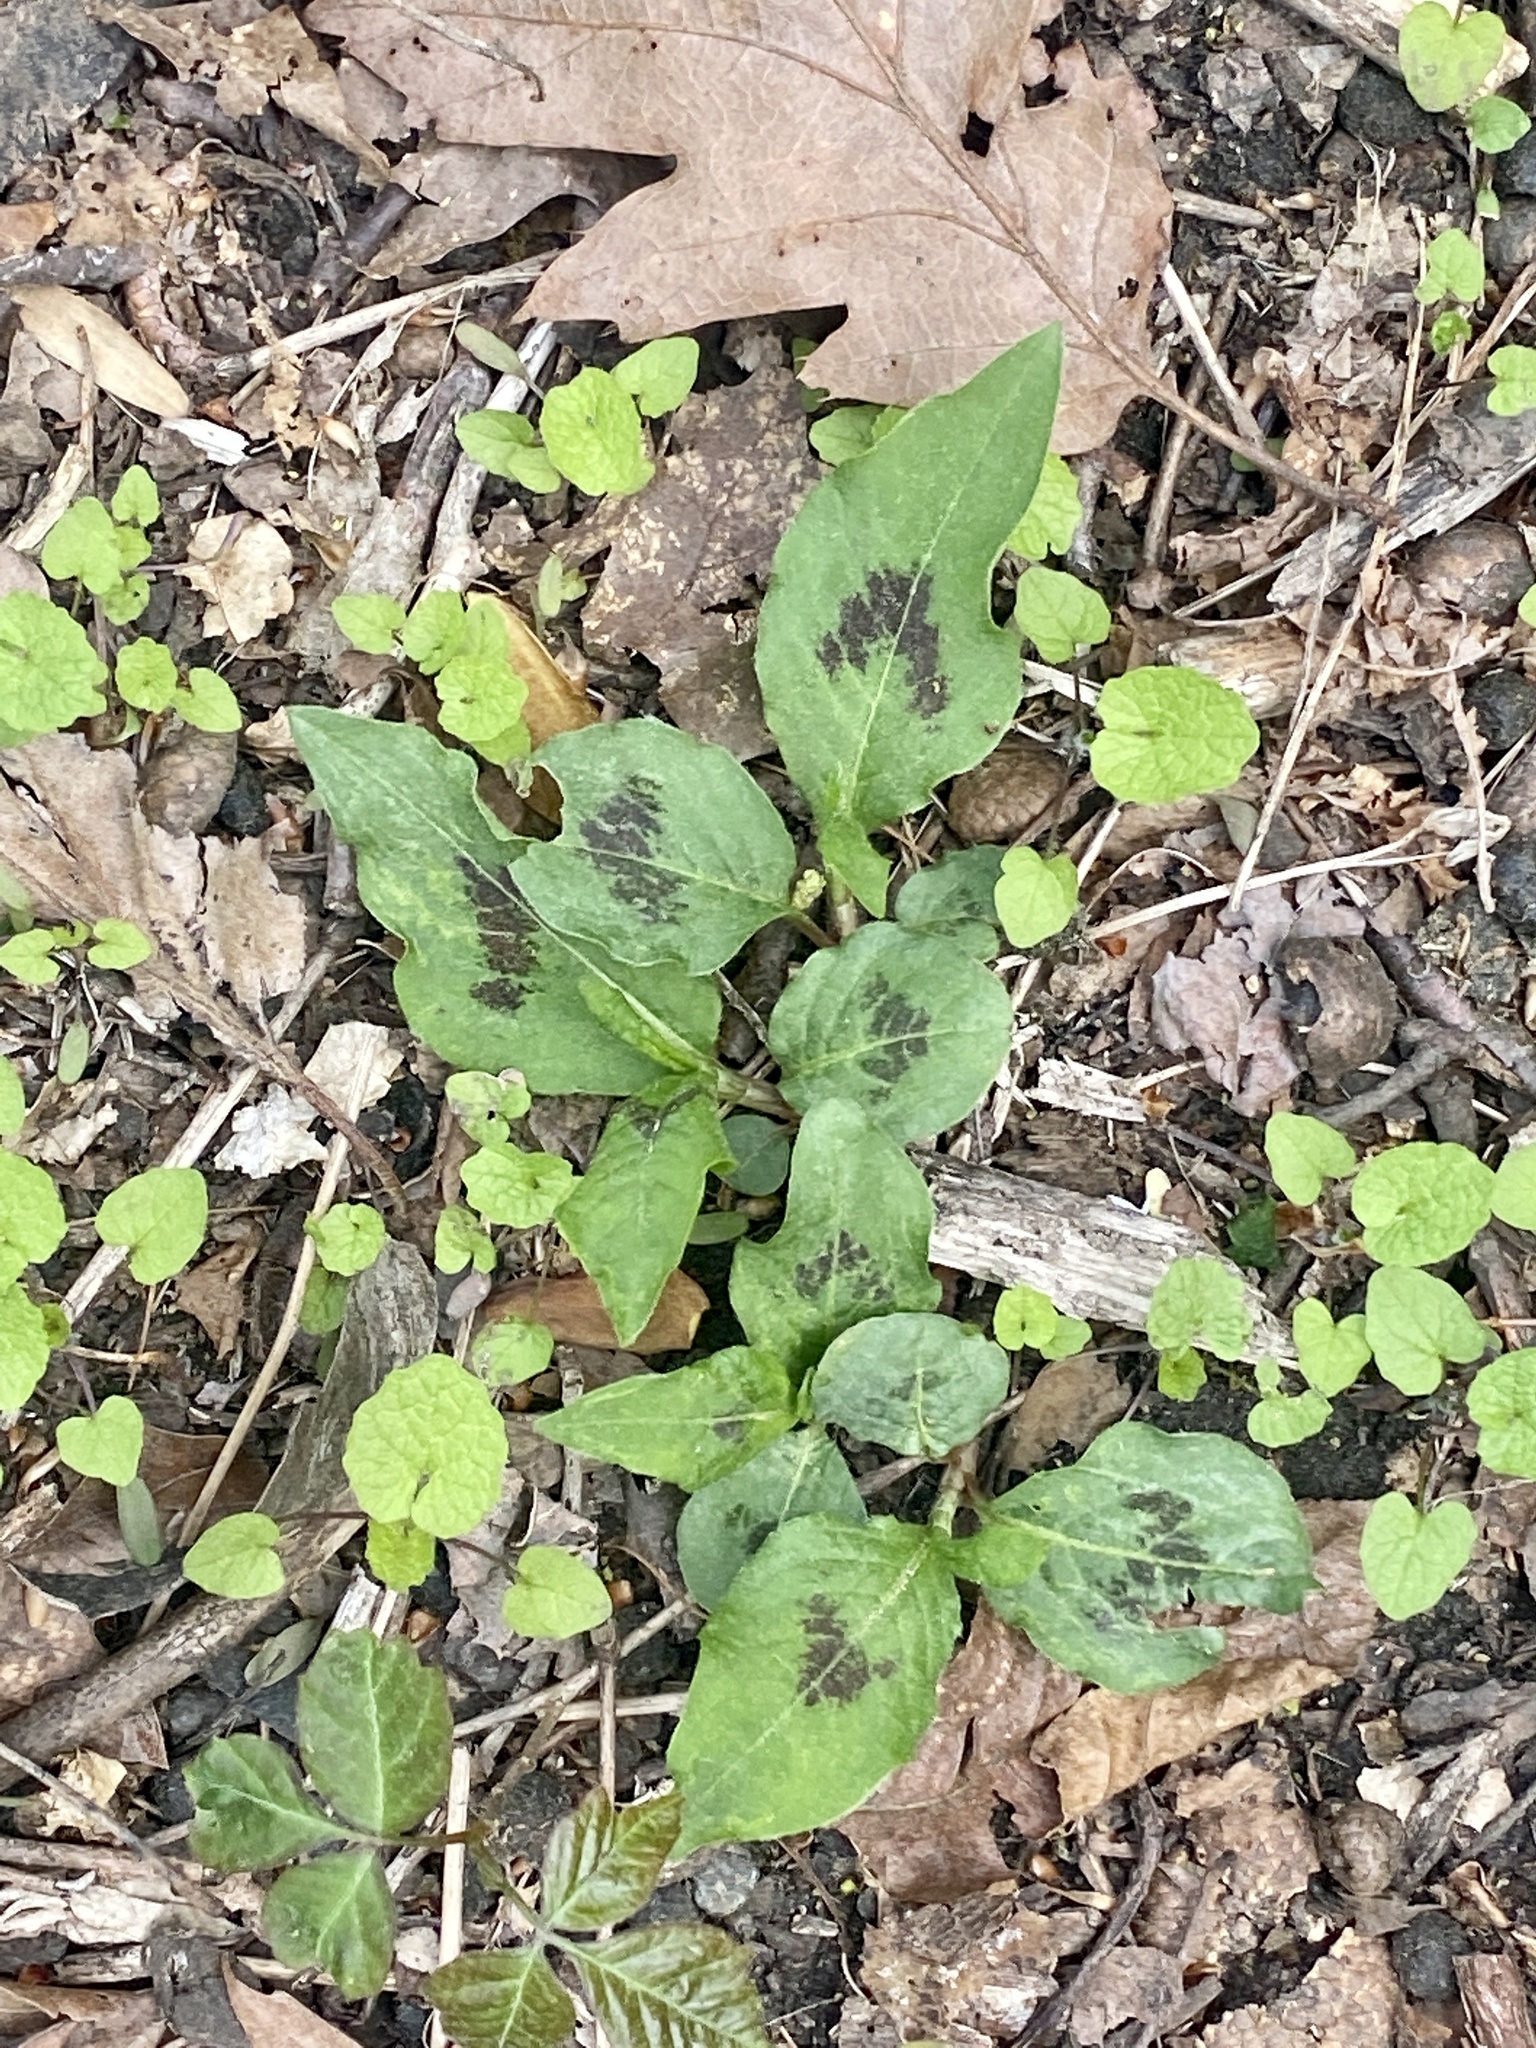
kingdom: Plantae
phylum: Tracheophyta
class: Magnoliopsida
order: Caryophyllales
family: Polygonaceae
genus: Persicaria
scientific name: Persicaria virginiana
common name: Jumpseed
